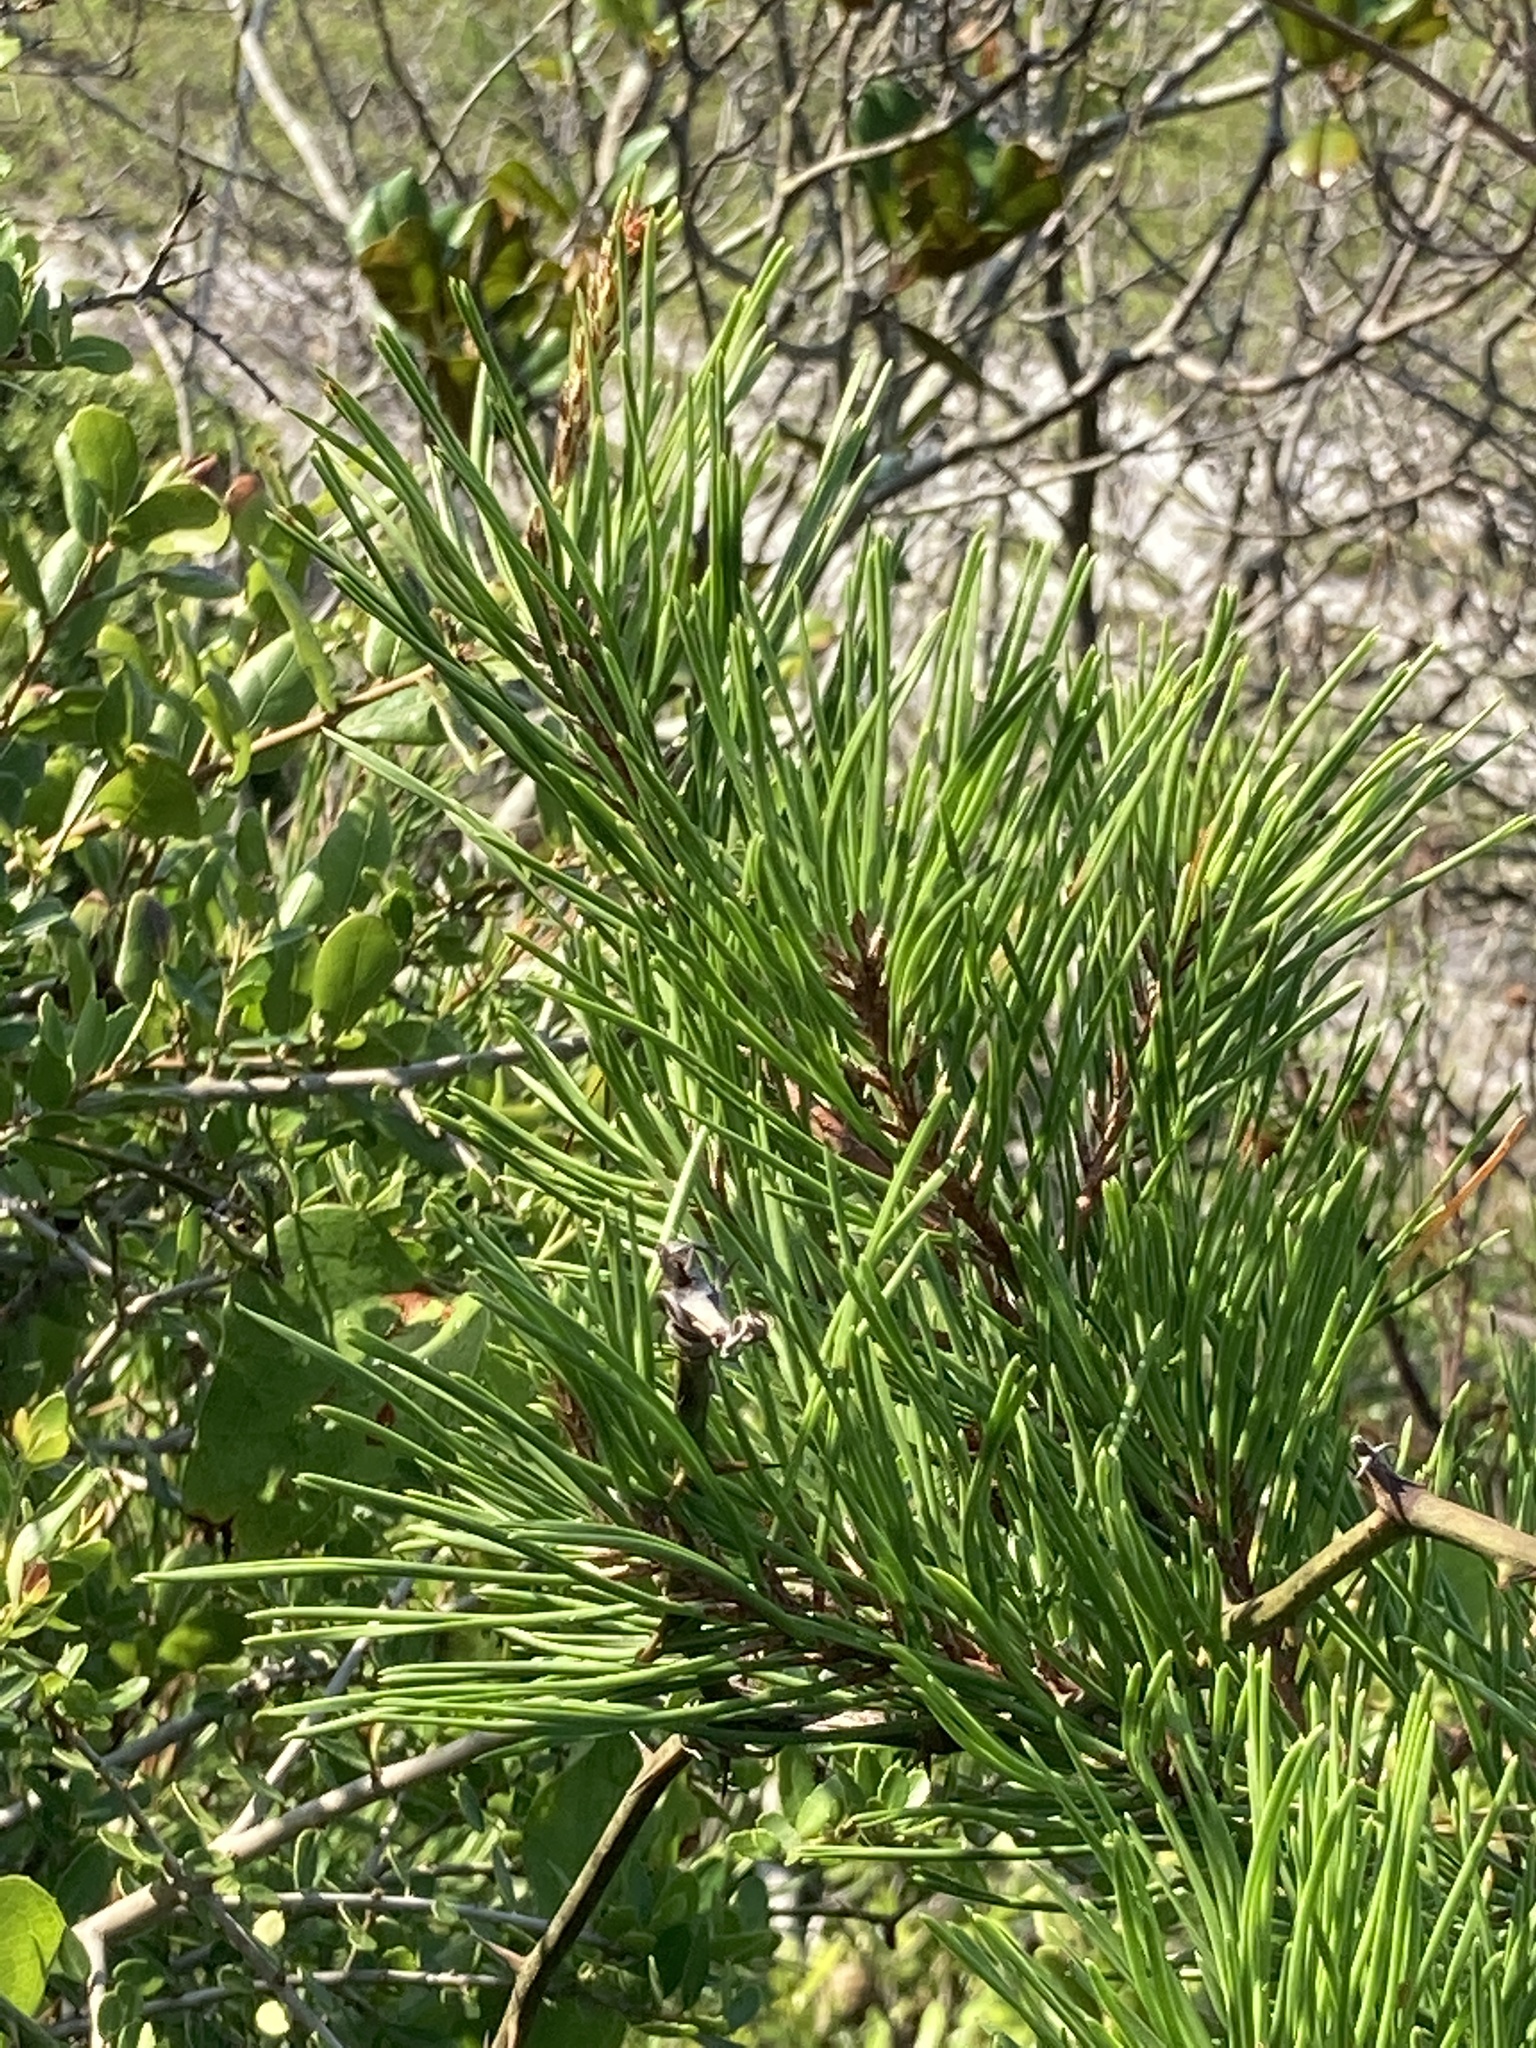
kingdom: Plantae
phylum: Tracheophyta
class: Pinopsida
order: Pinales
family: Pinaceae
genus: Pinus
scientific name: Pinus clausa
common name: Sand pine
